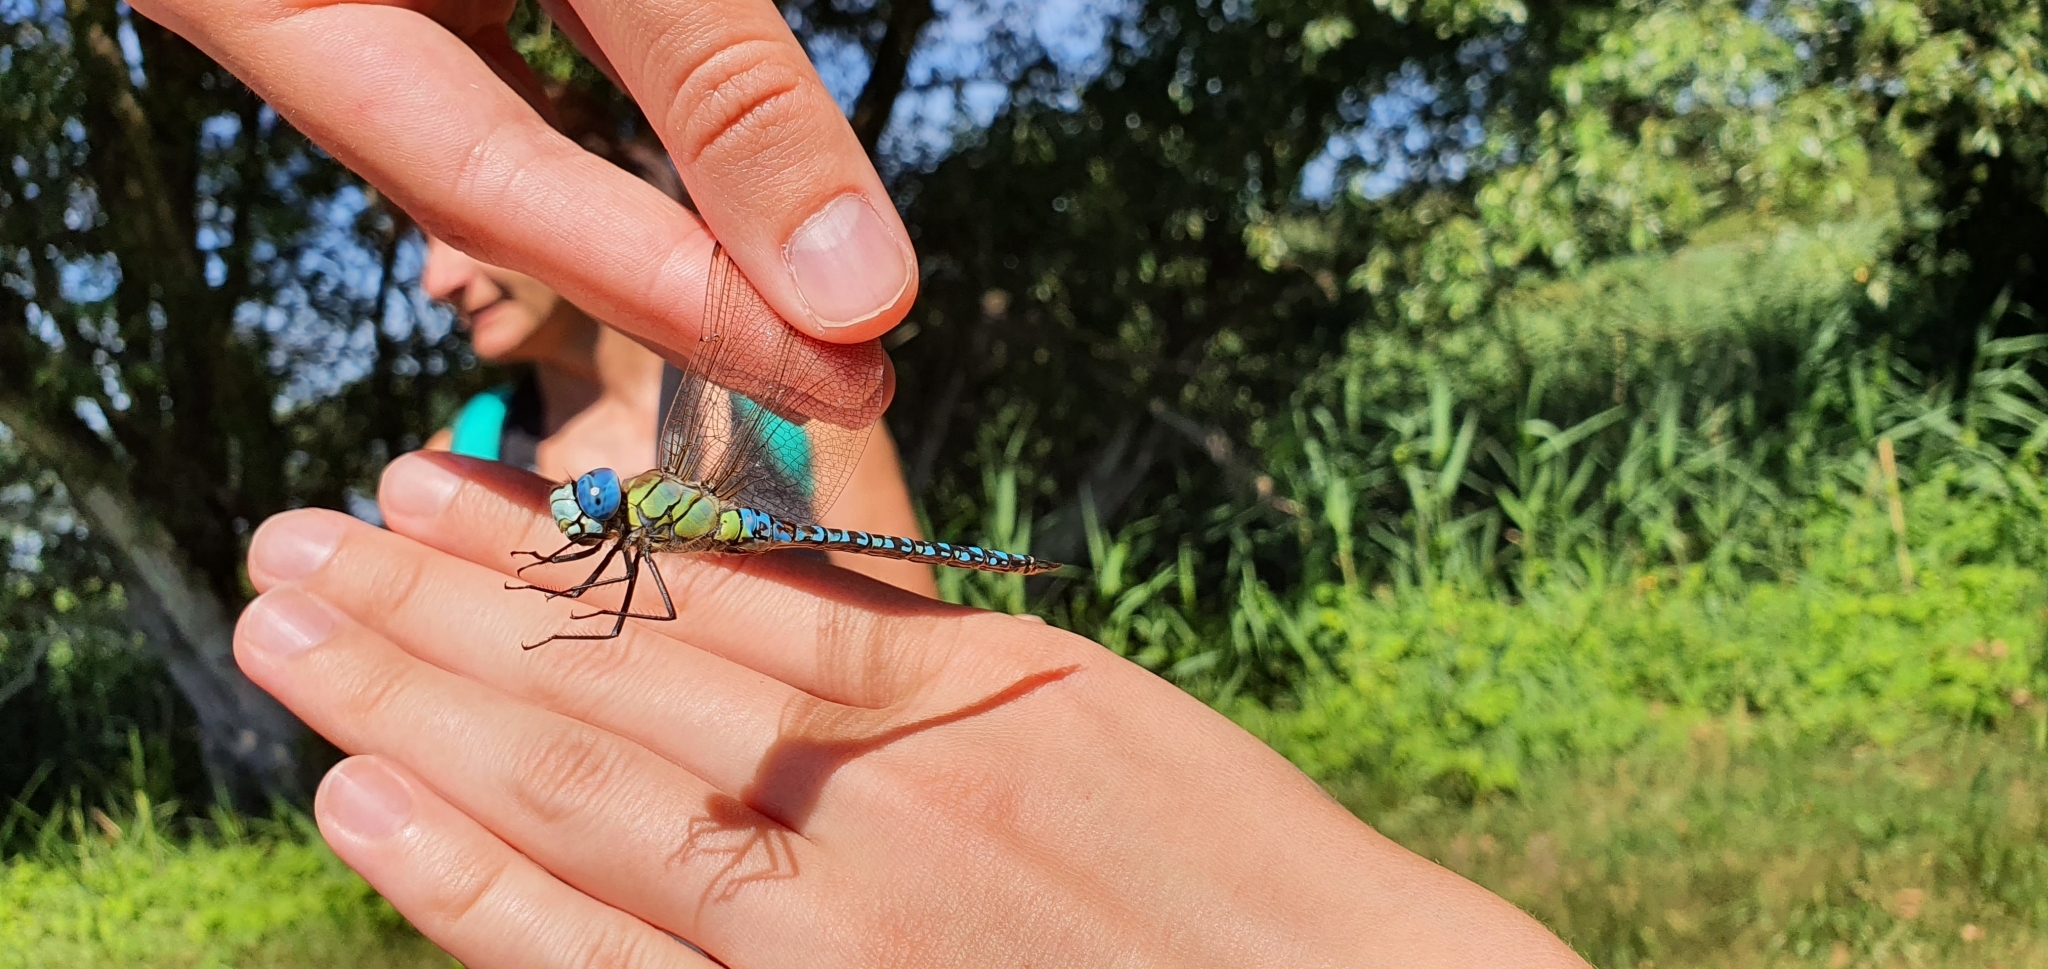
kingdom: Animalia
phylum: Arthropoda
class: Insecta
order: Odonata
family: Aeshnidae
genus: Aeshna
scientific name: Aeshna affinis
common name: Southern migrant hawker
